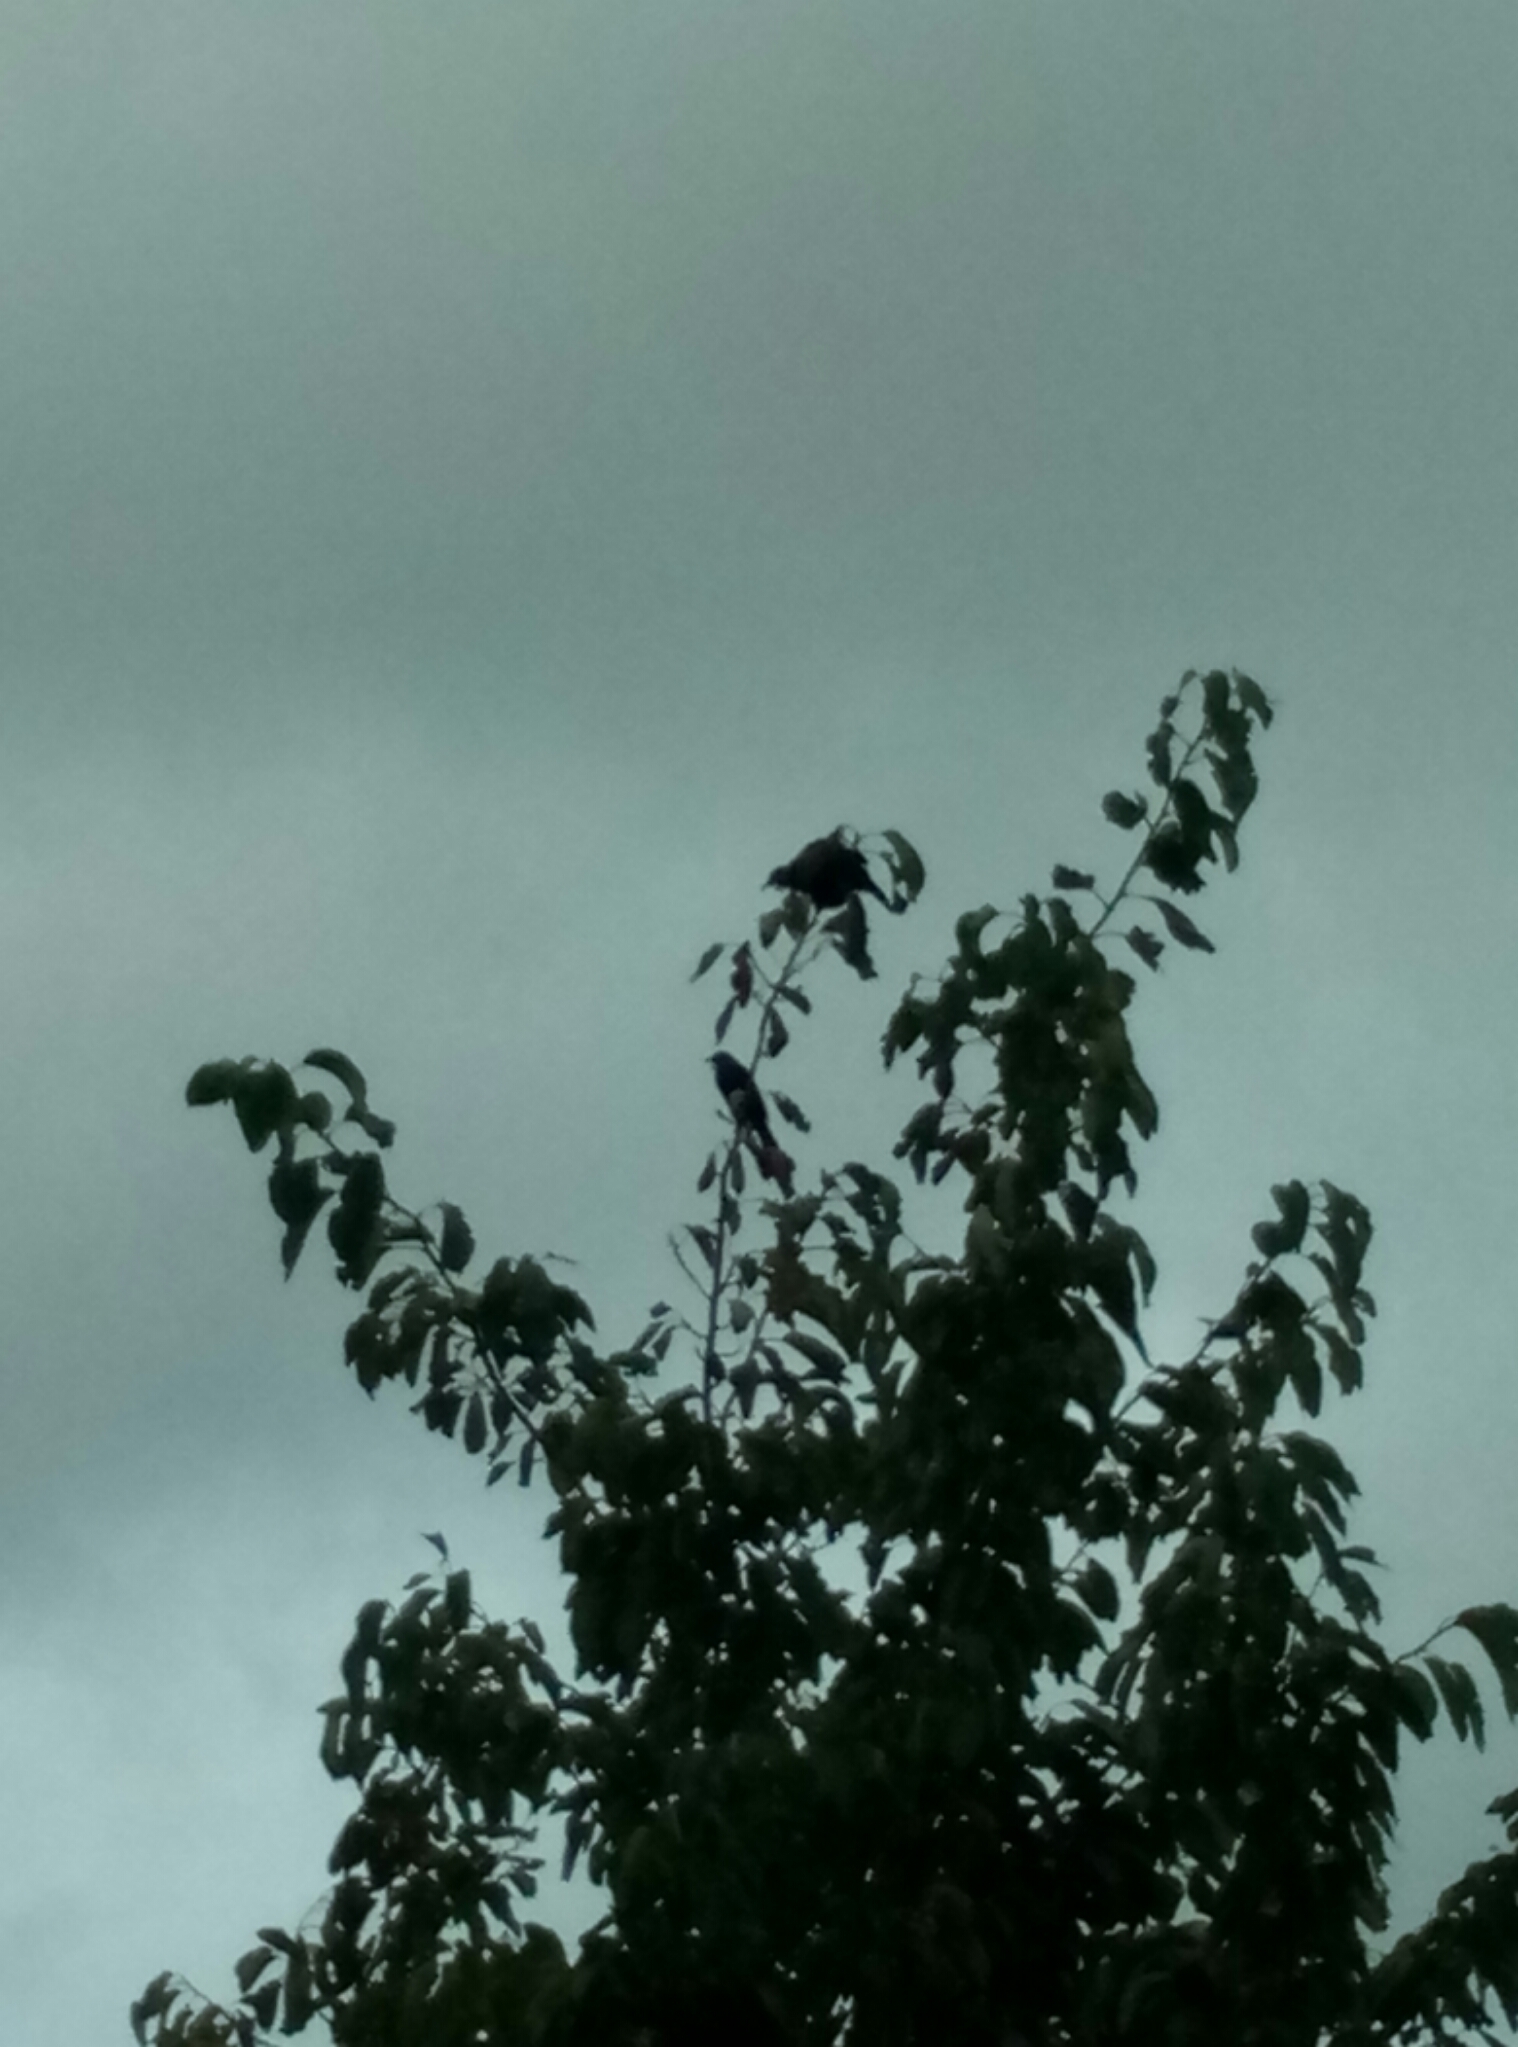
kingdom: Animalia
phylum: Chordata
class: Aves
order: Passeriformes
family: Meliphagidae
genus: Prosthemadera
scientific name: Prosthemadera novaeseelandiae
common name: Tui
